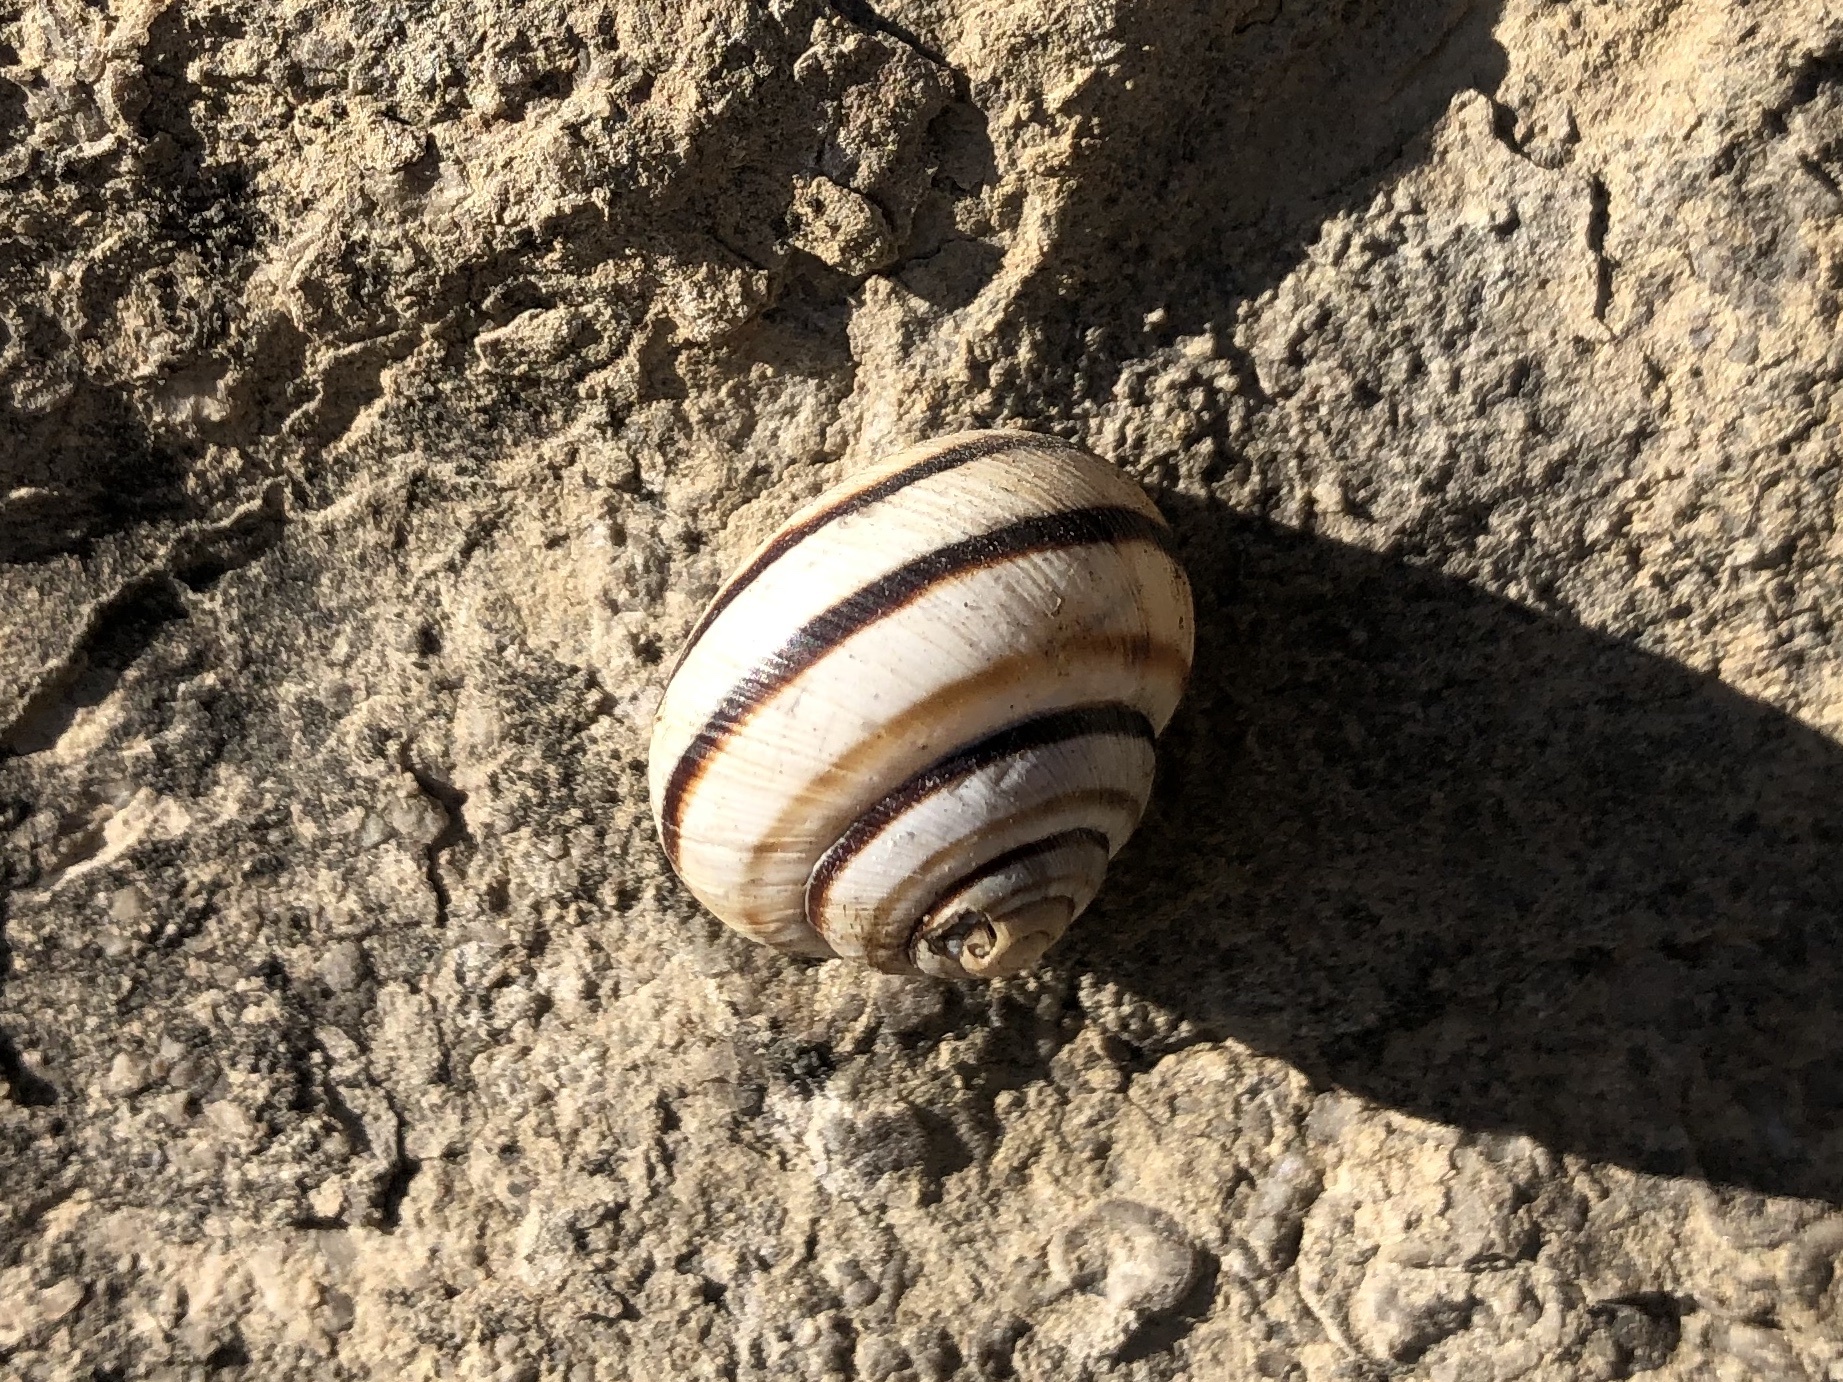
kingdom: Animalia
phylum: Mollusca
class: Gastropoda
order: Stylommatophora
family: Helicidae
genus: Caucasotachea
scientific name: Caucasotachea vindobonensis
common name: European helicid land snail
